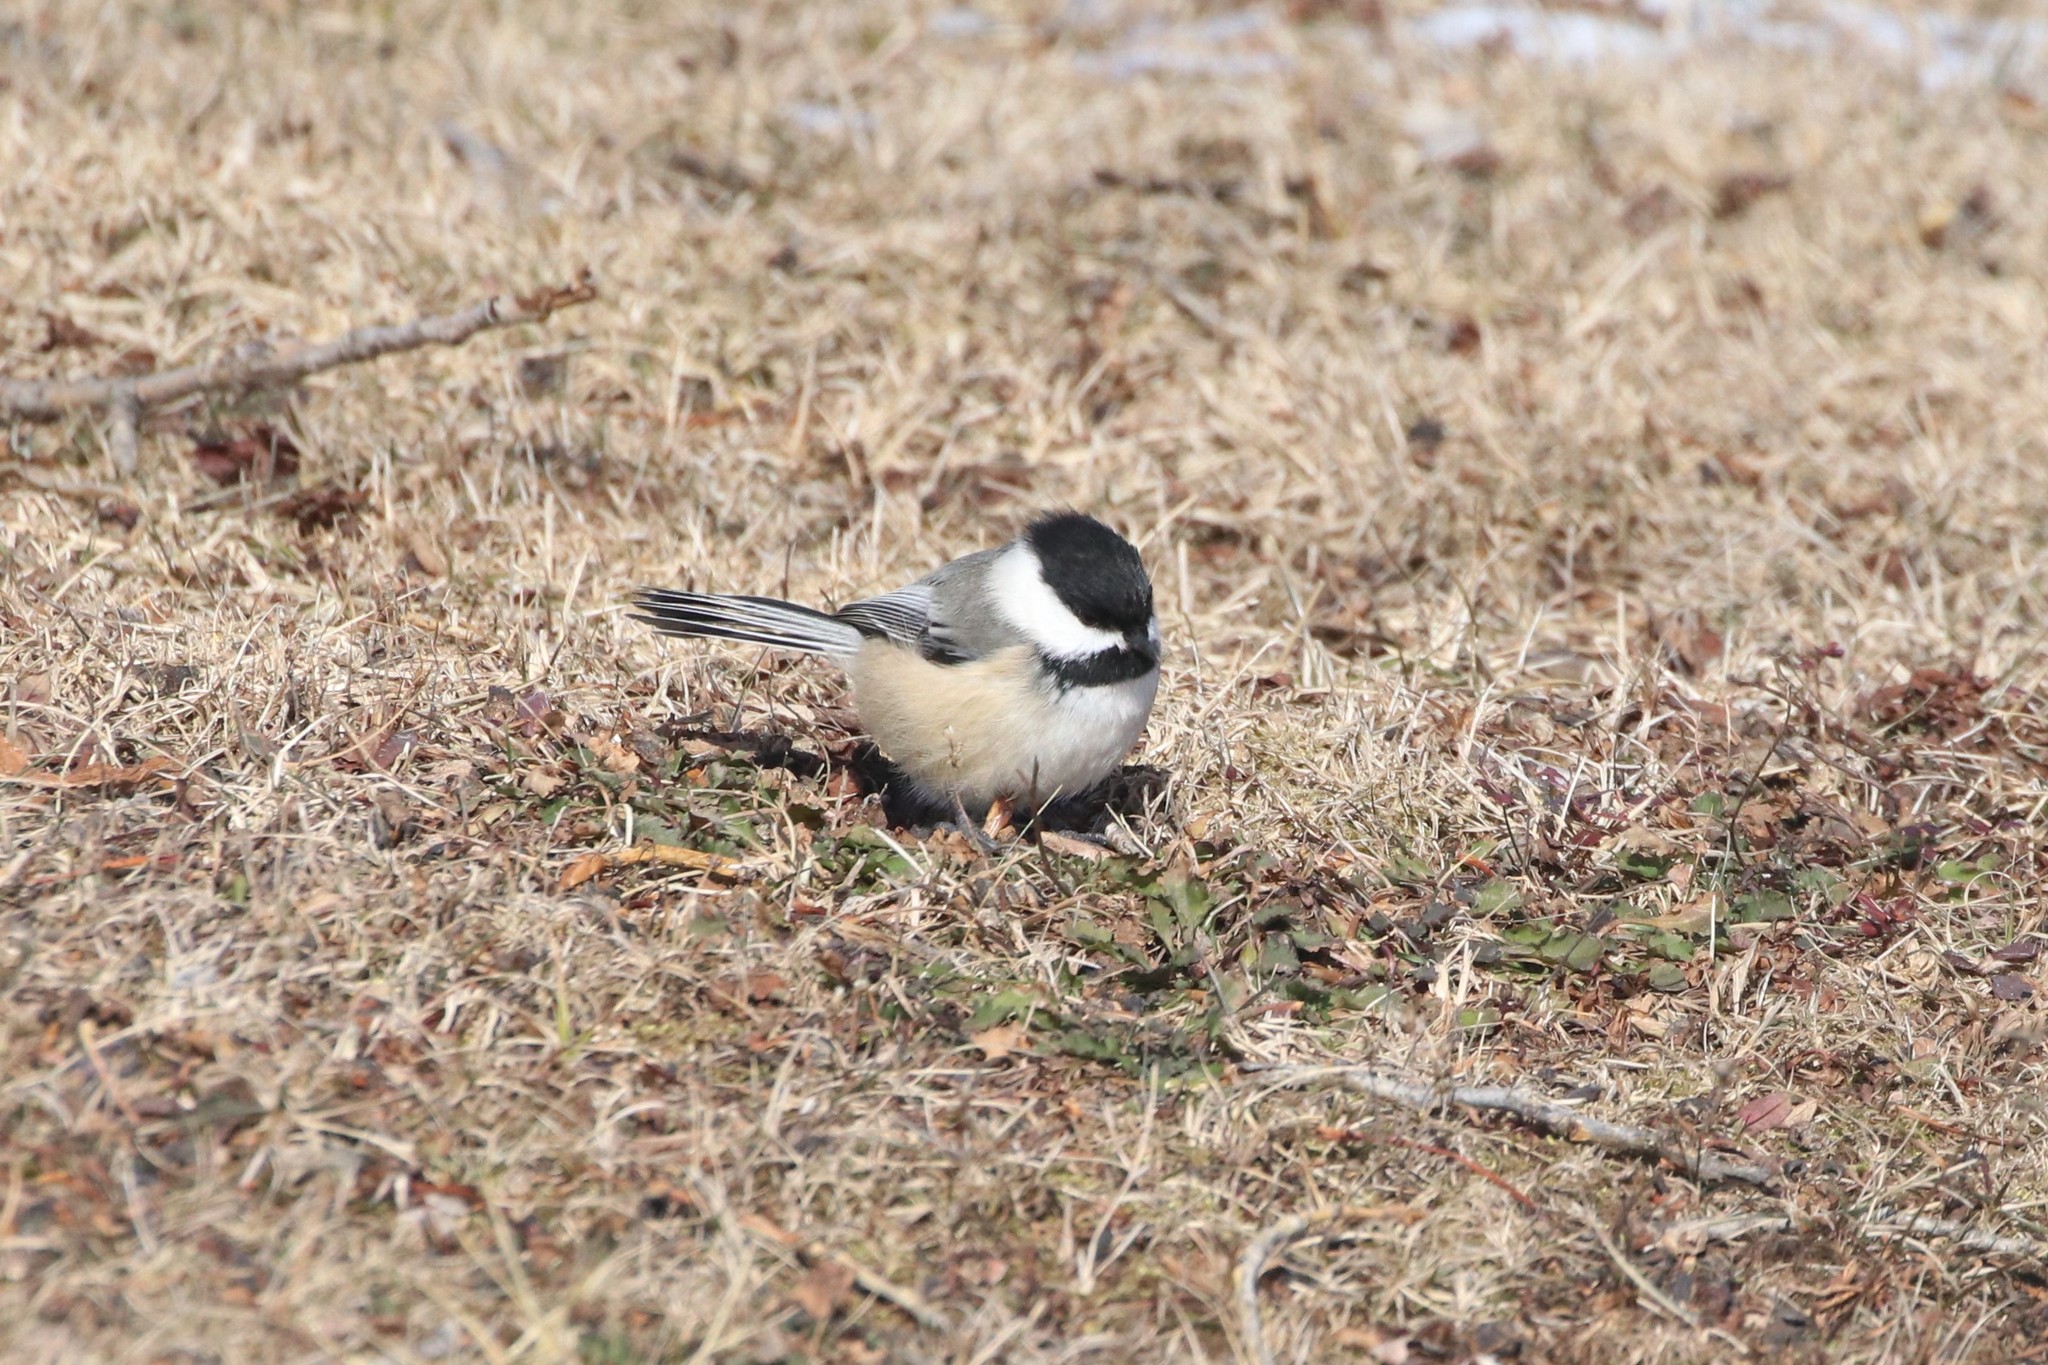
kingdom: Animalia
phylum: Chordata
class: Aves
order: Passeriformes
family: Paridae
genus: Poecile
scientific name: Poecile atricapillus
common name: Black-capped chickadee
